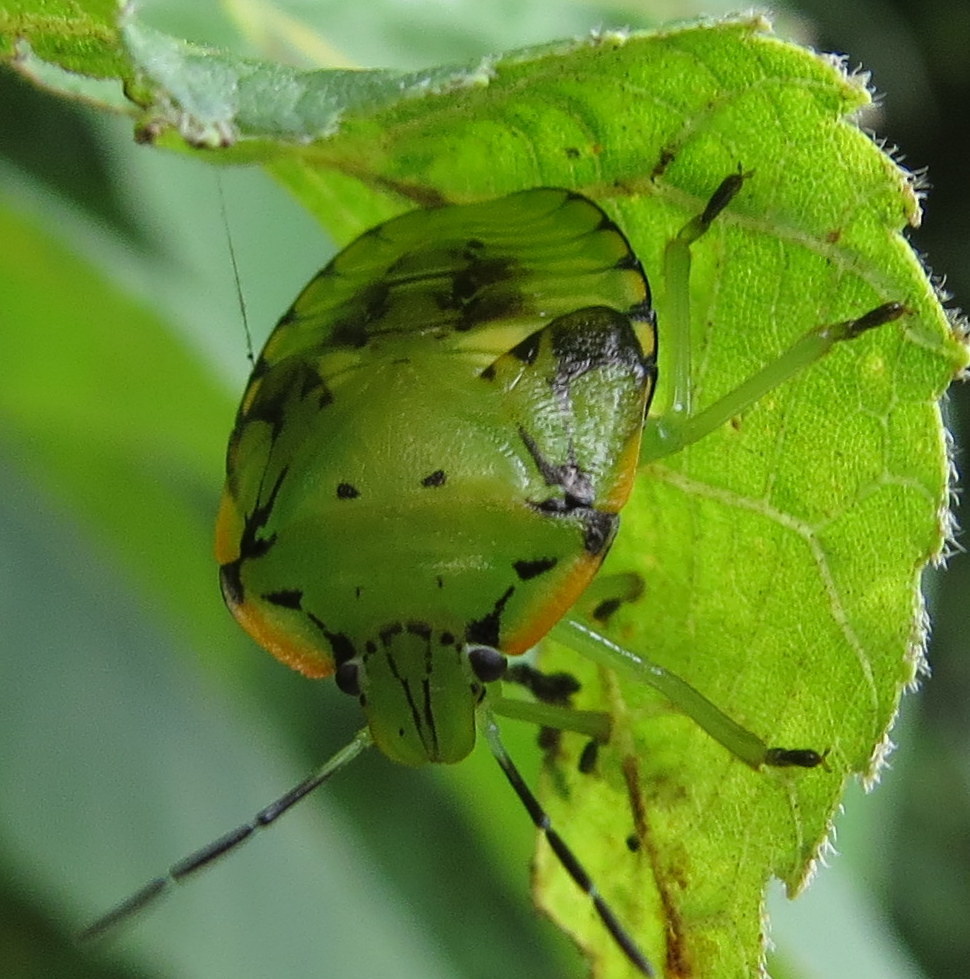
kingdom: Animalia
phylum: Arthropoda
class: Insecta
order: Hemiptera
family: Pentatomidae
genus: Chinavia
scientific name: Chinavia hilaris
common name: Green stink bug
